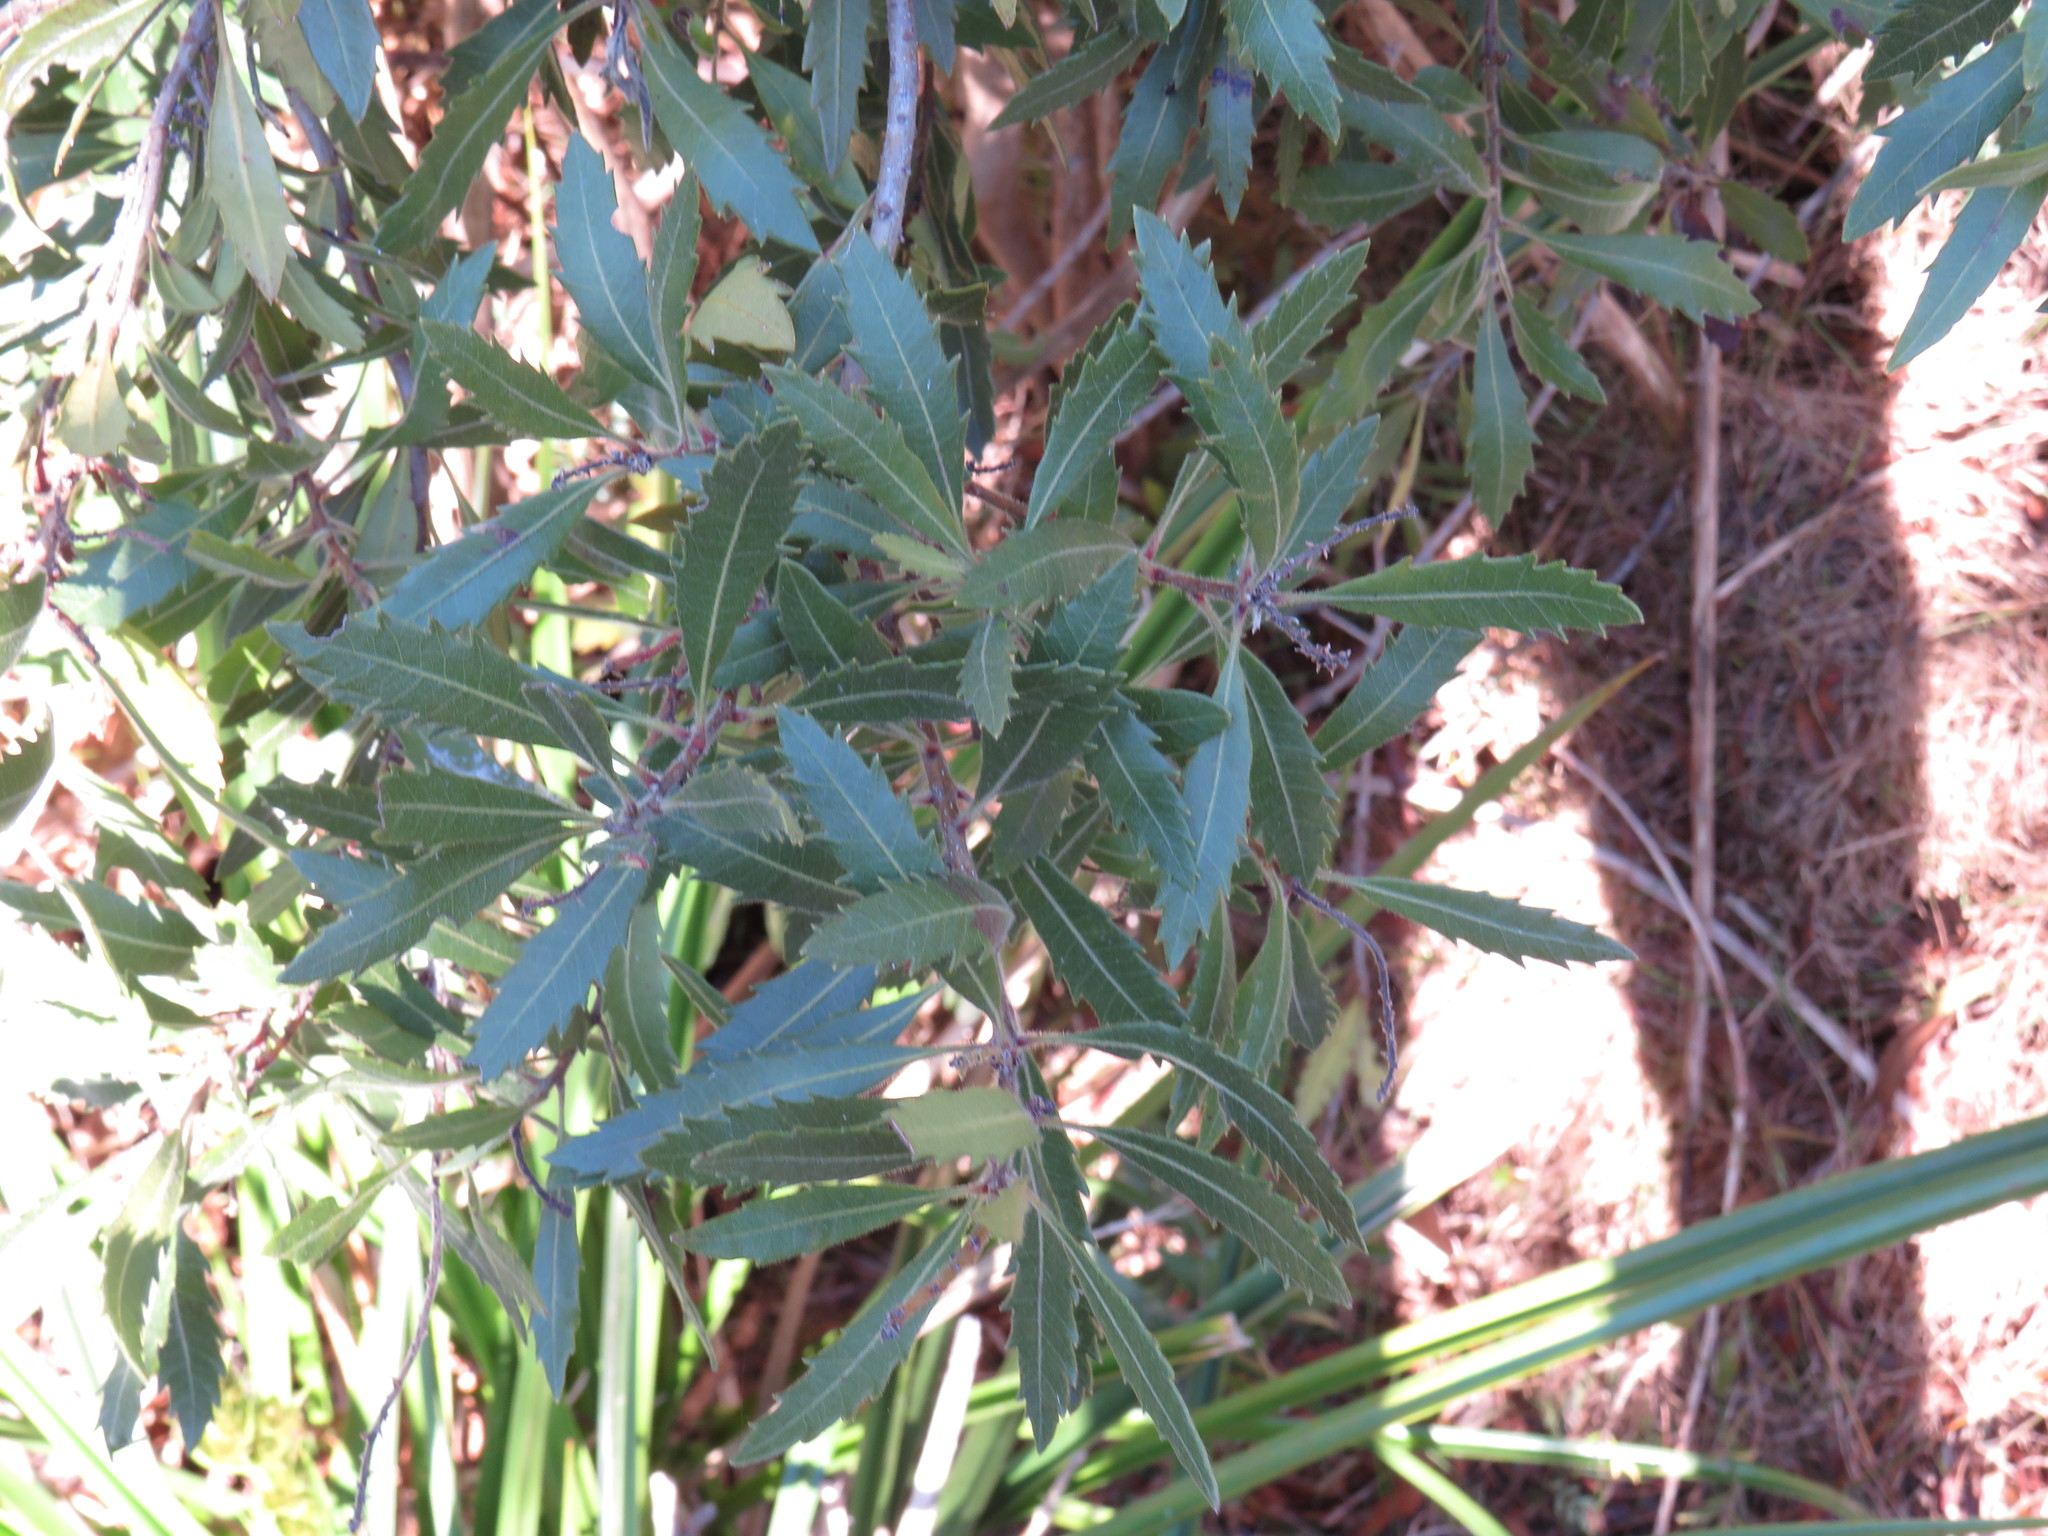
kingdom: Plantae
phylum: Tracheophyta
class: Magnoliopsida
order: Fagales
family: Myricaceae
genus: Morella
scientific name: Morella serrata
